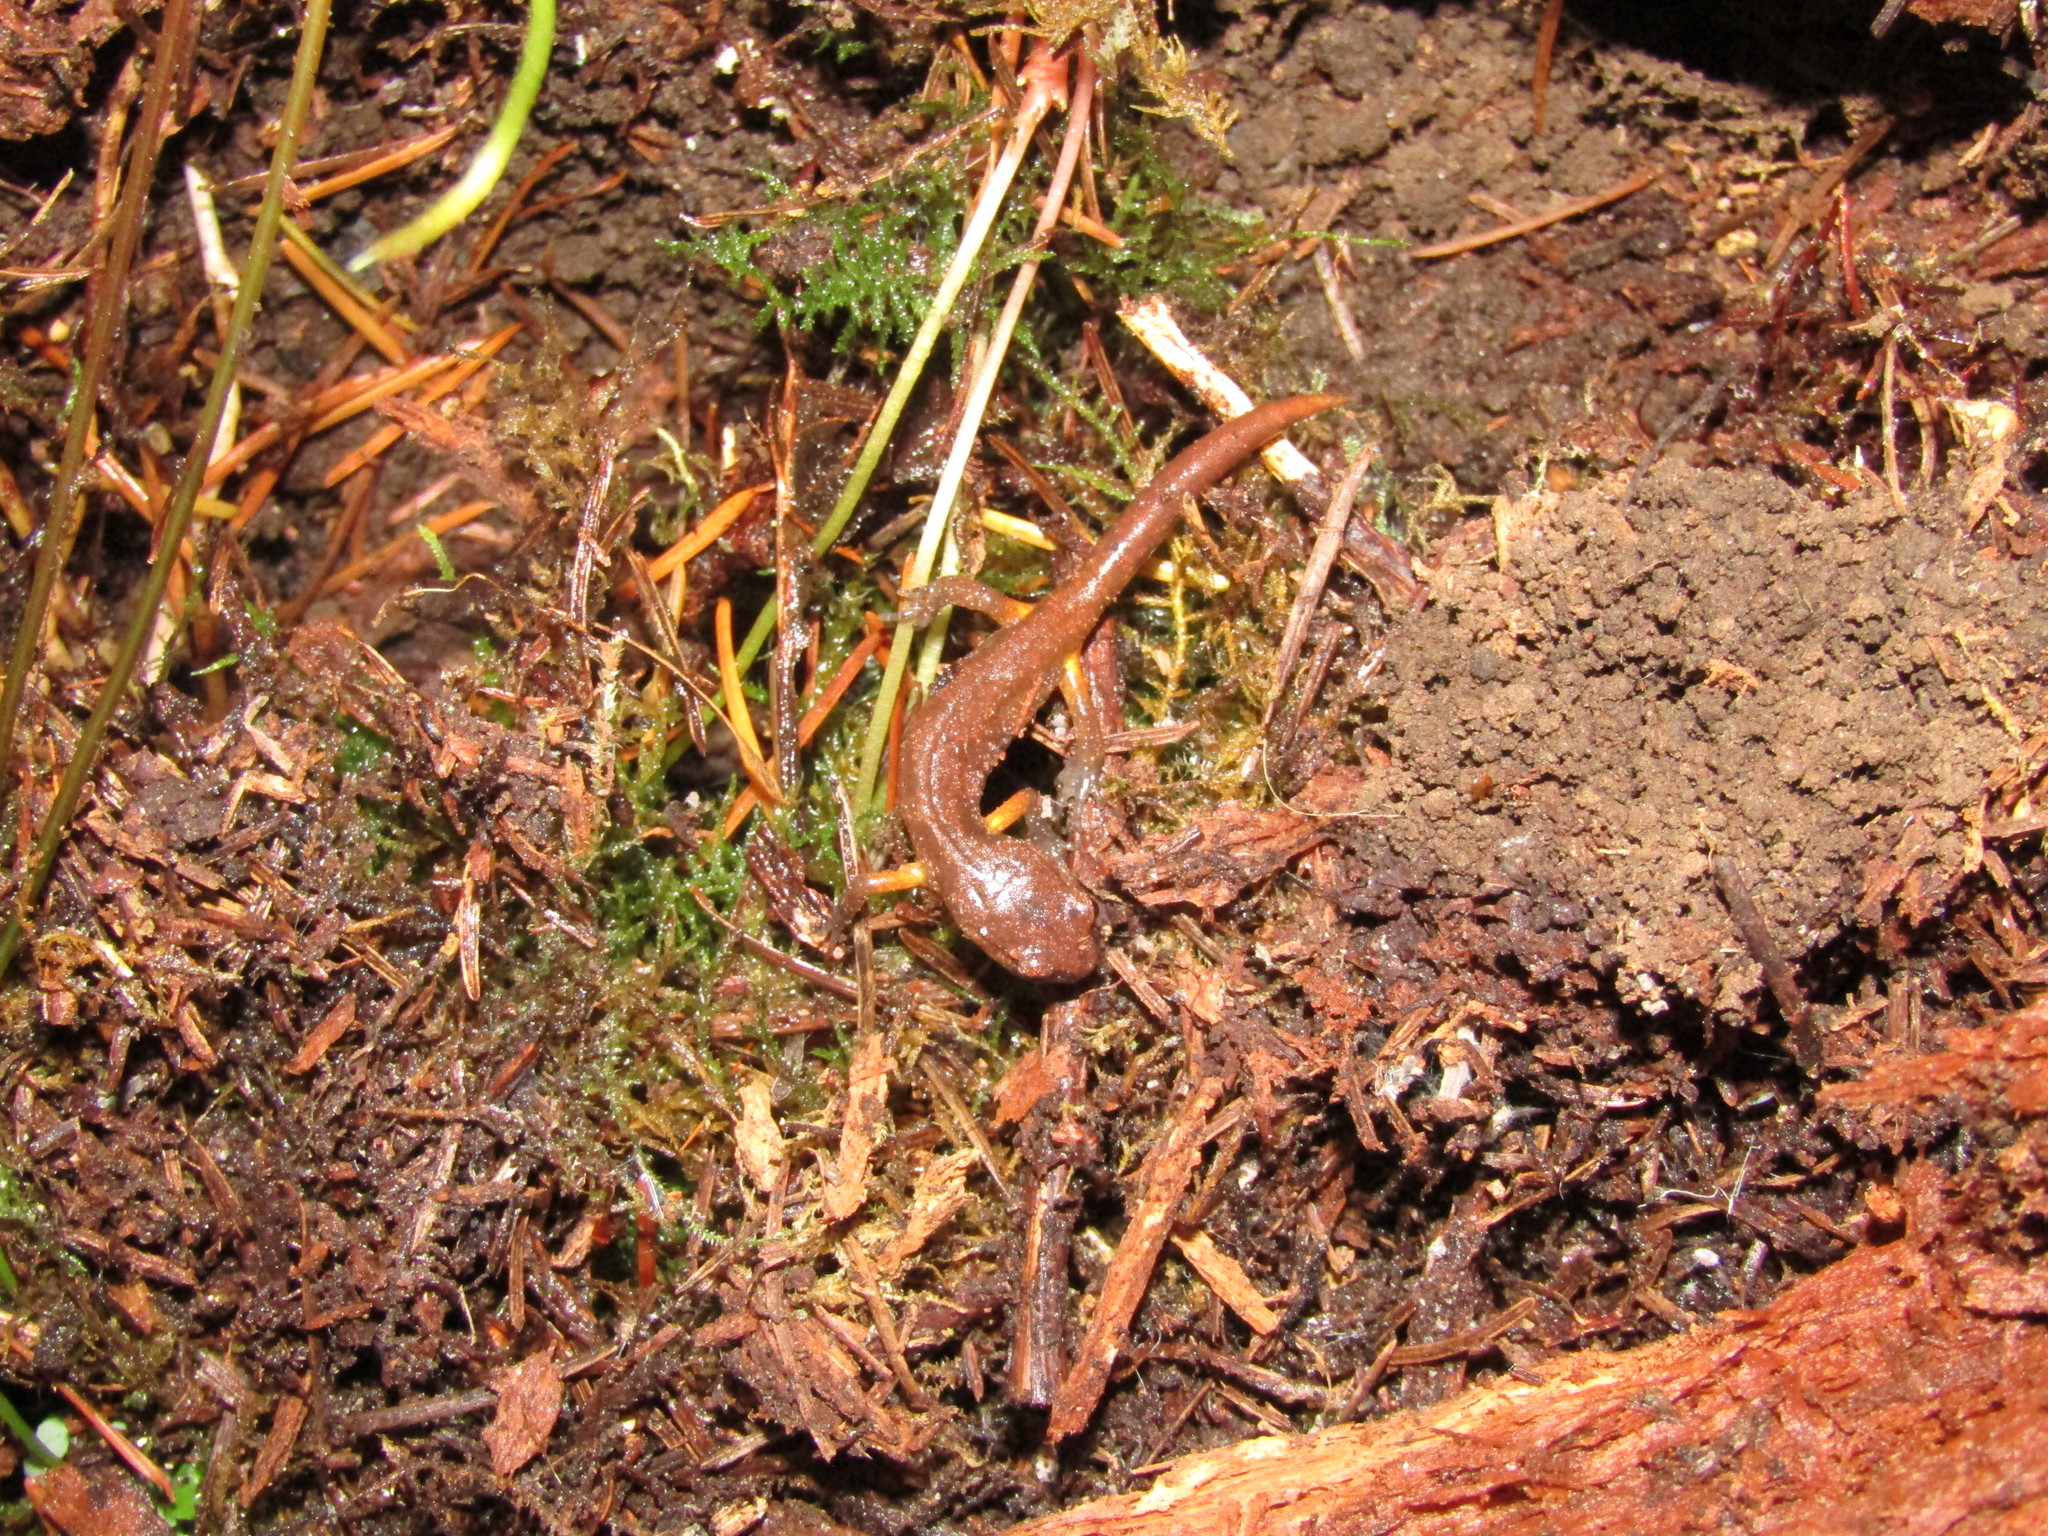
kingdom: Animalia
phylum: Chordata
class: Amphibia
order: Caudata
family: Plethodontidae
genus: Ensatina
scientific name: Ensatina eschscholtzii
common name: Ensatina
